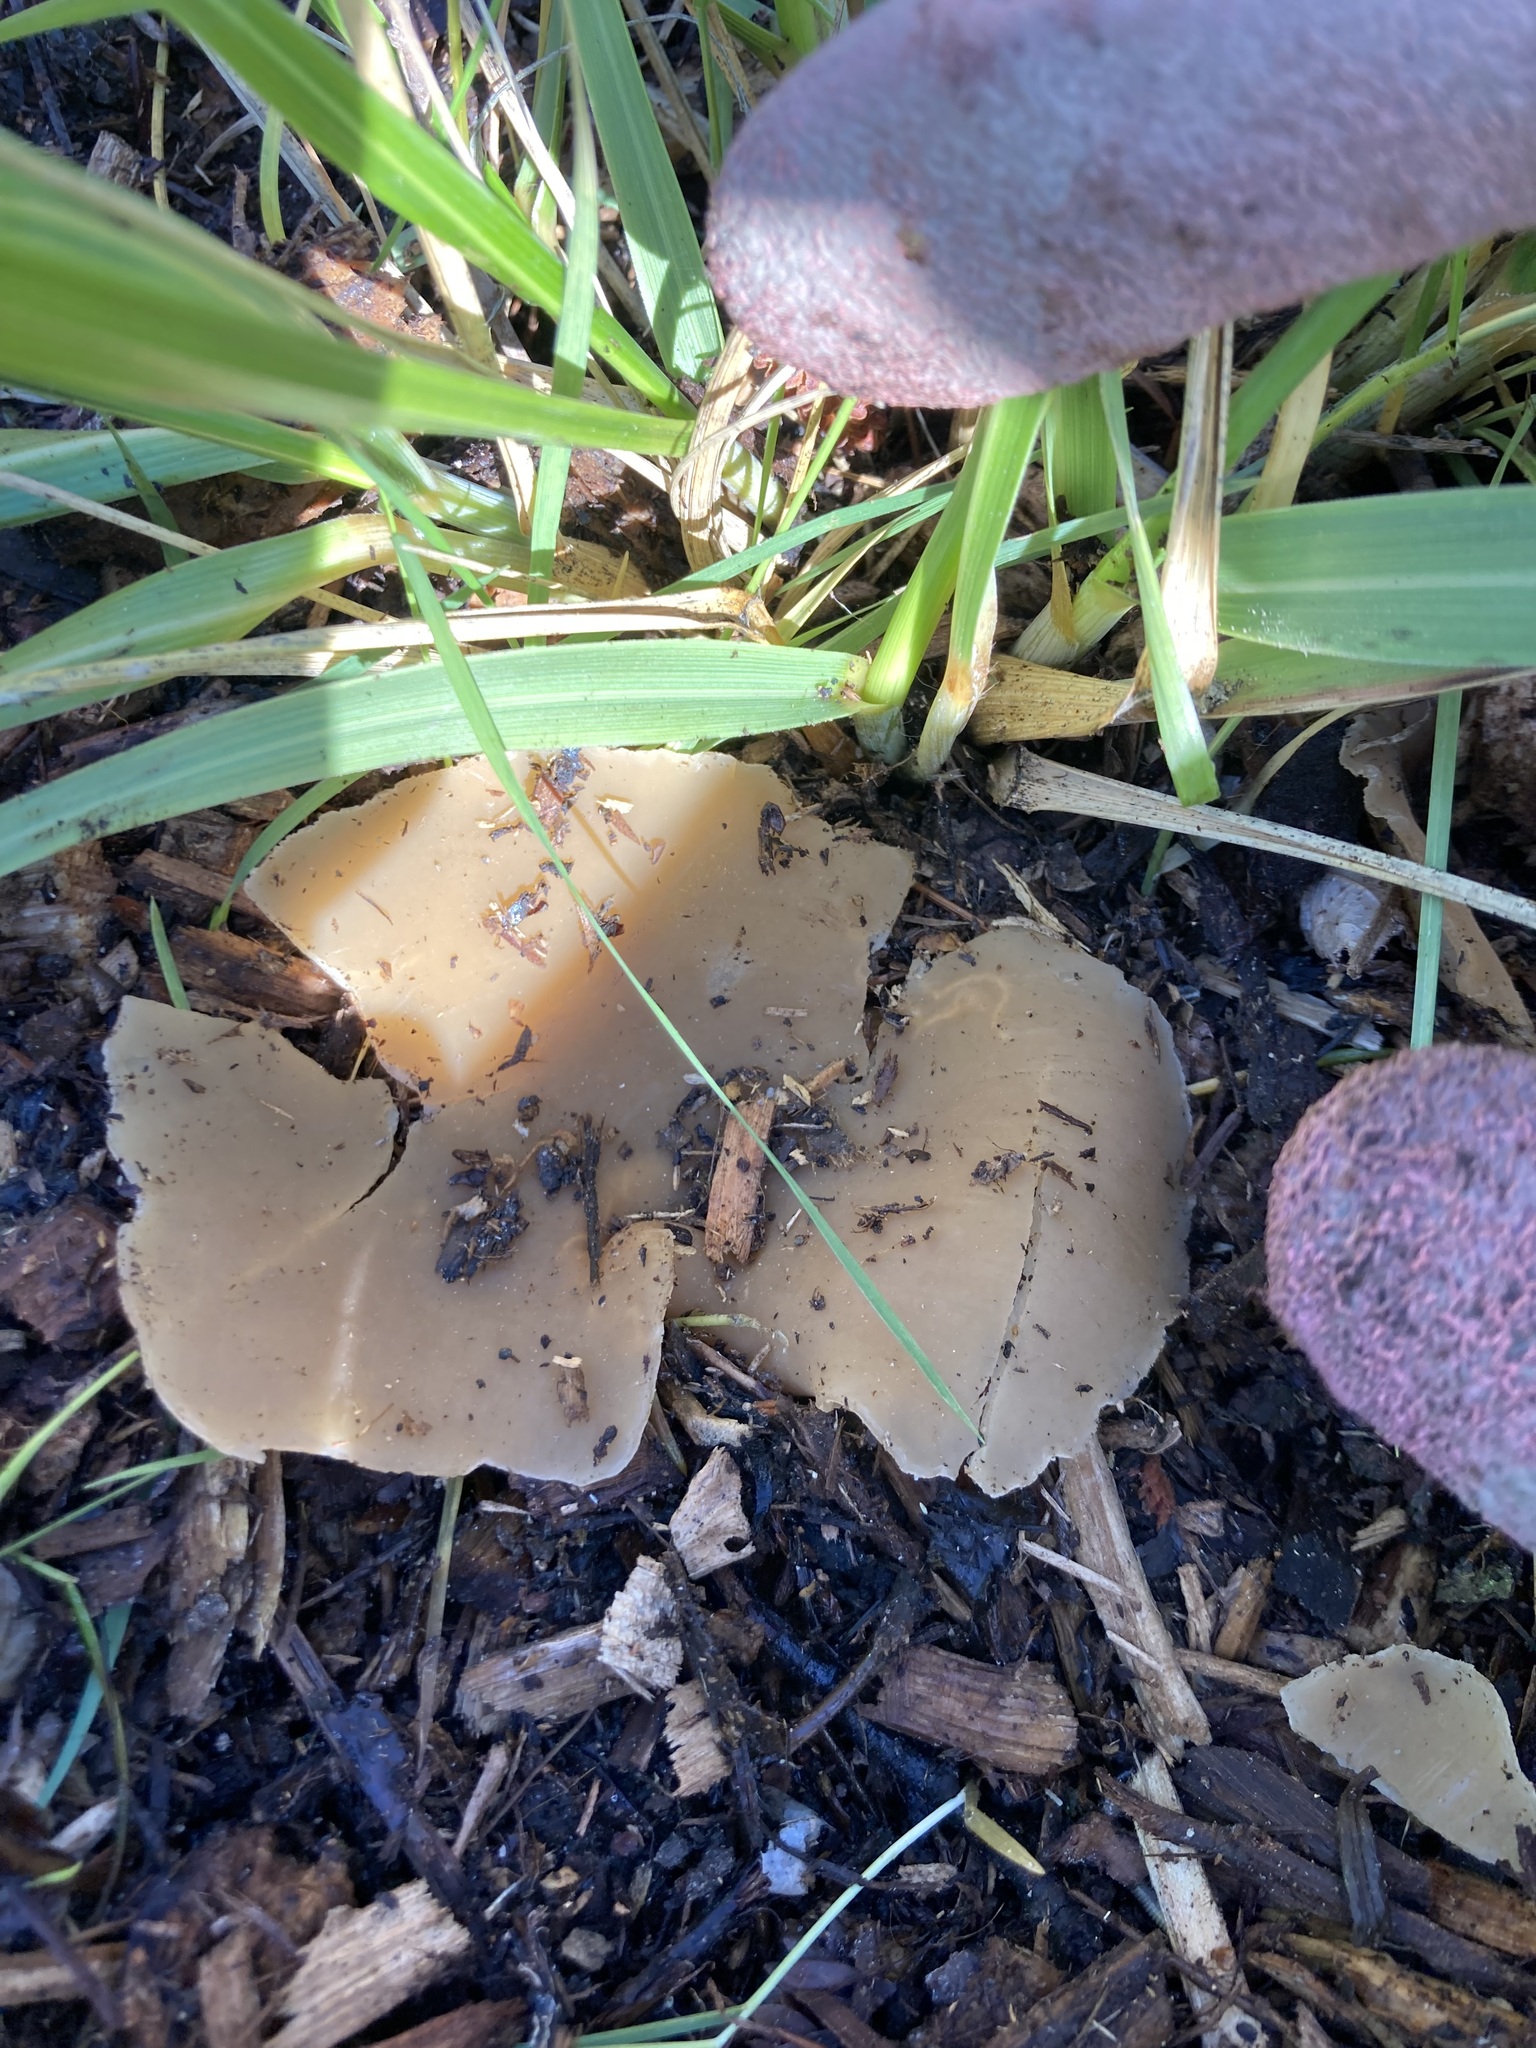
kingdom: Fungi
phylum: Ascomycota
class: Pezizomycetes
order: Pezizales
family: Pezizaceae
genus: Peziza
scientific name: Peziza varia
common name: Layered cup
